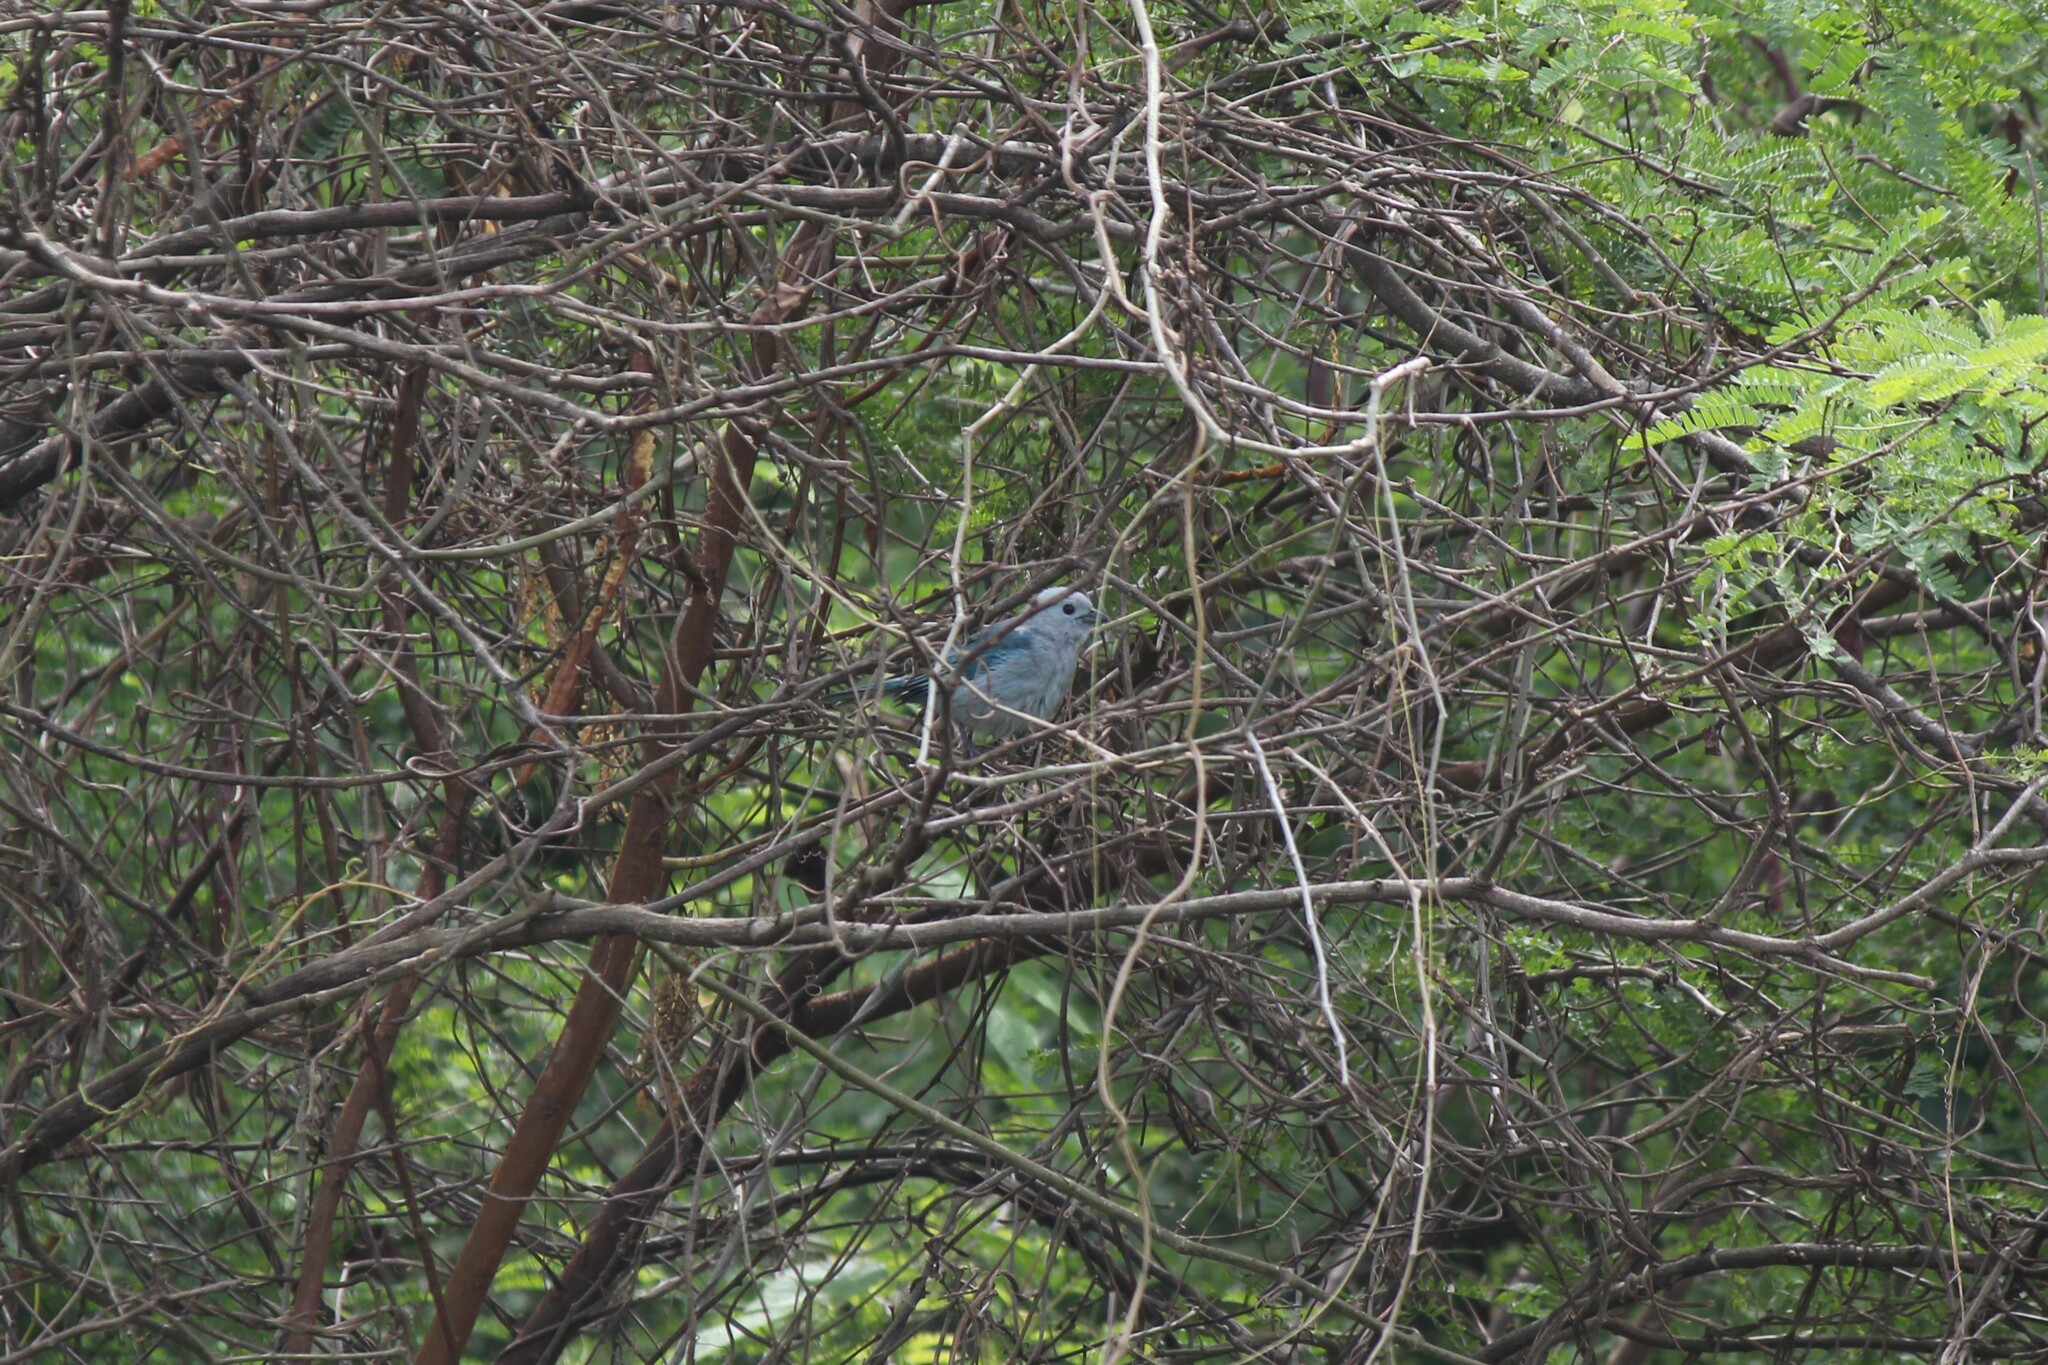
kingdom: Animalia
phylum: Chordata
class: Aves
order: Passeriformes
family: Thraupidae
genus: Thraupis
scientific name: Thraupis episcopus
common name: Blue-grey tanager
